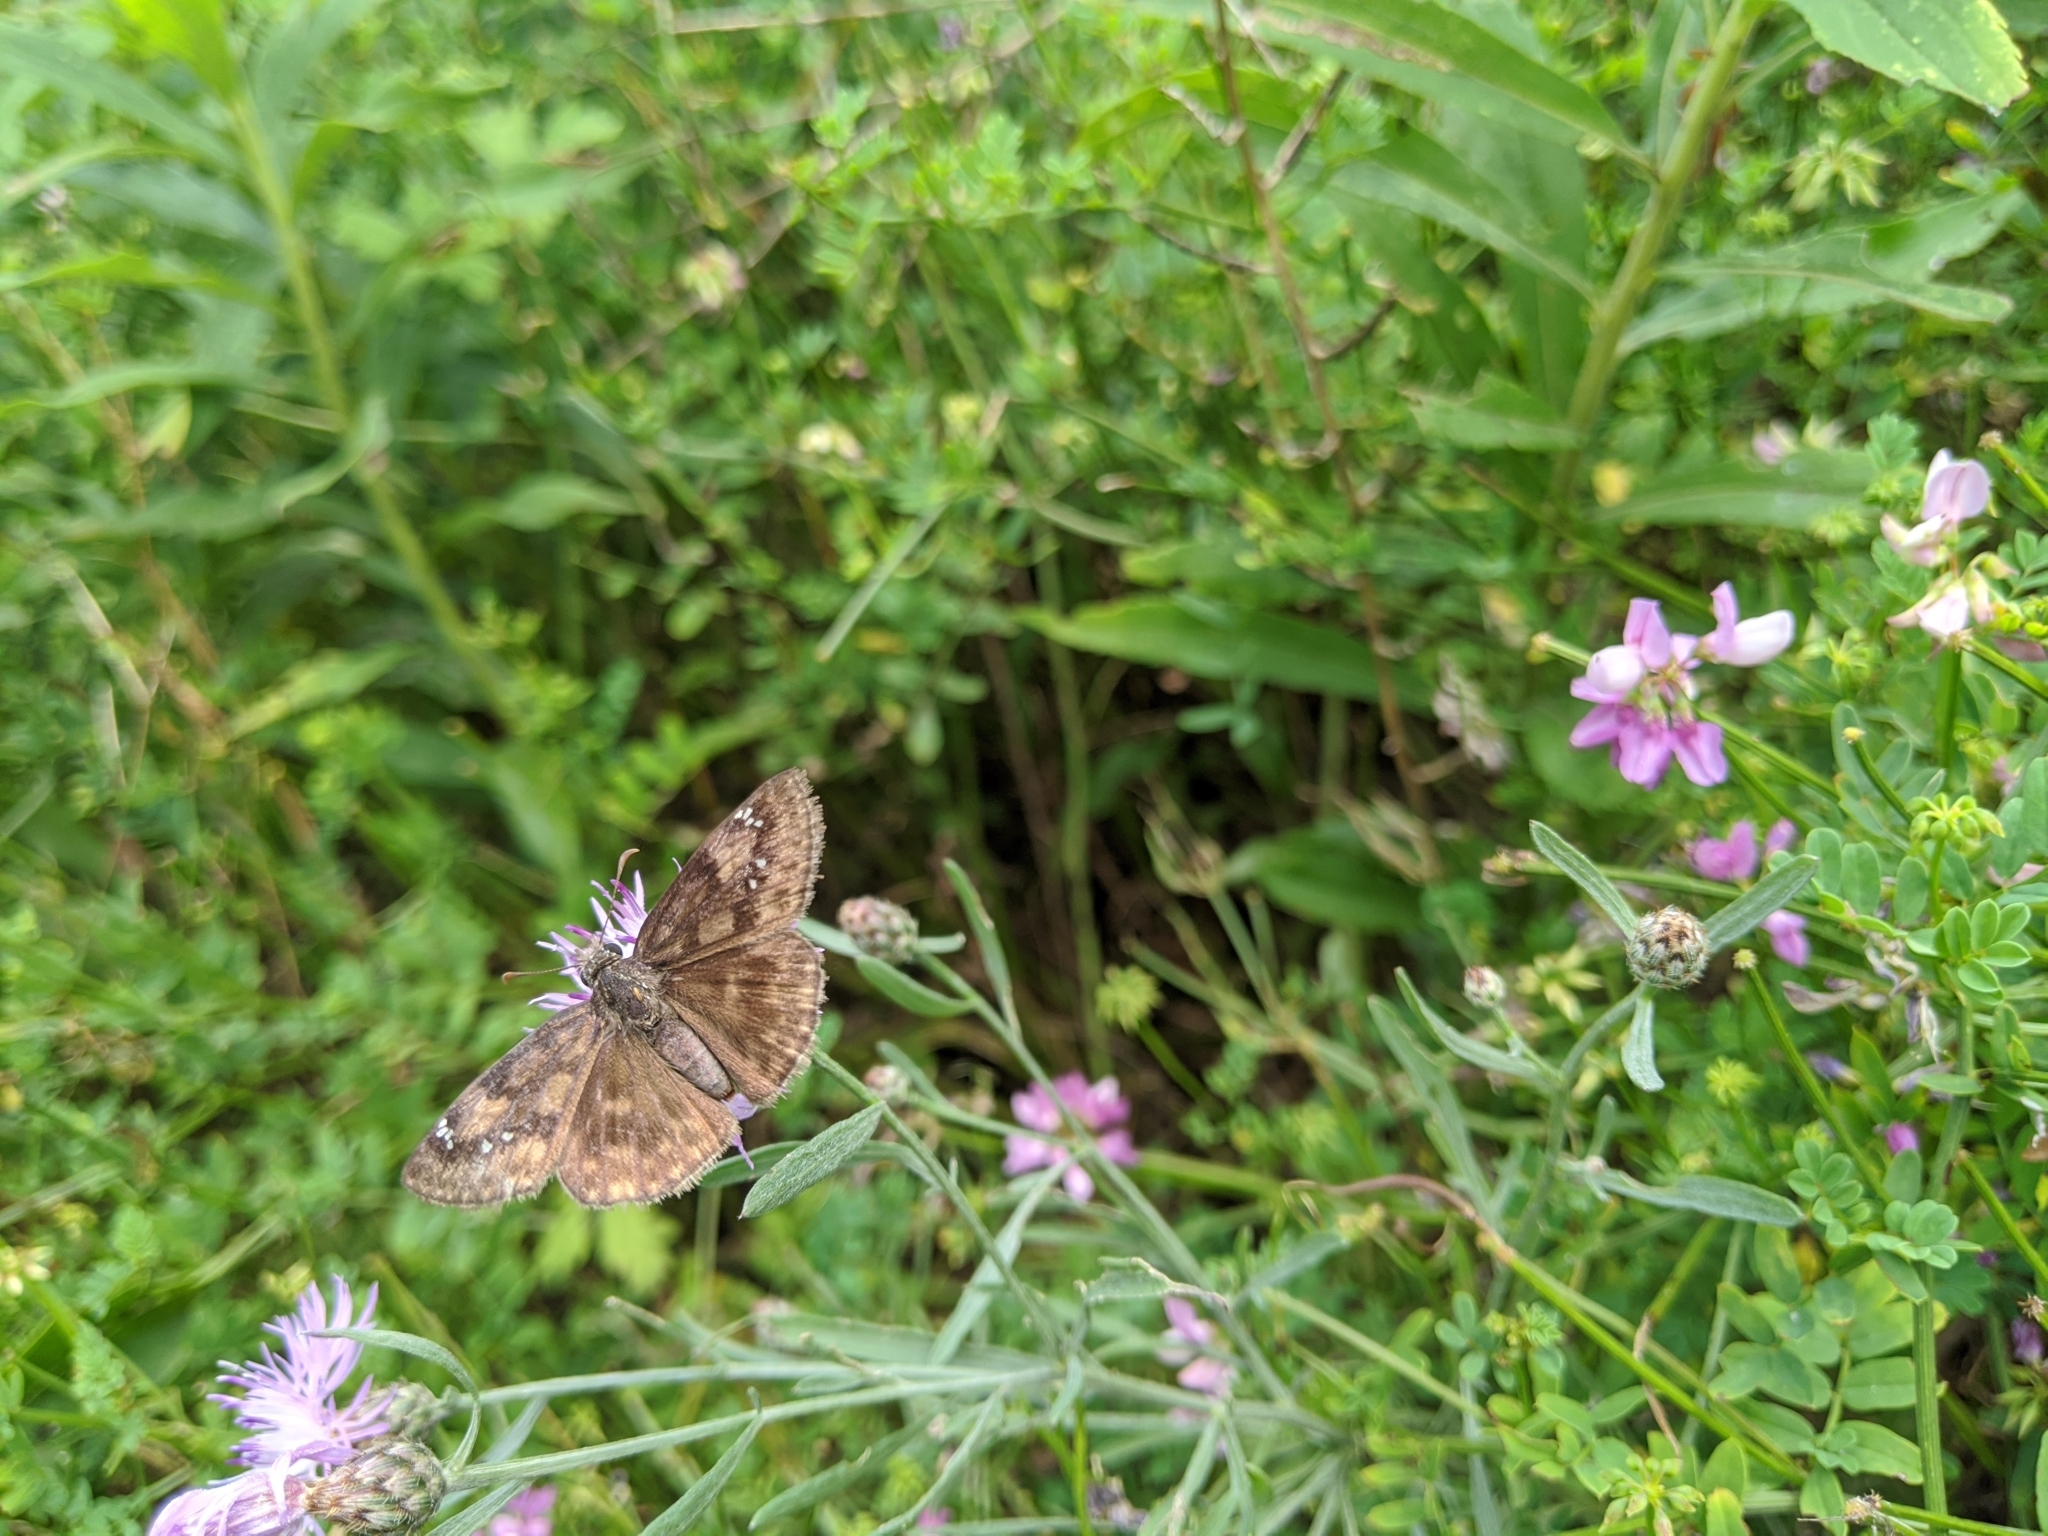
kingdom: Animalia
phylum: Arthropoda
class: Insecta
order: Lepidoptera
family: Hesperiidae
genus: Erynnis
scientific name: Erynnis baptisiae
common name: Wild indigo duskywing
